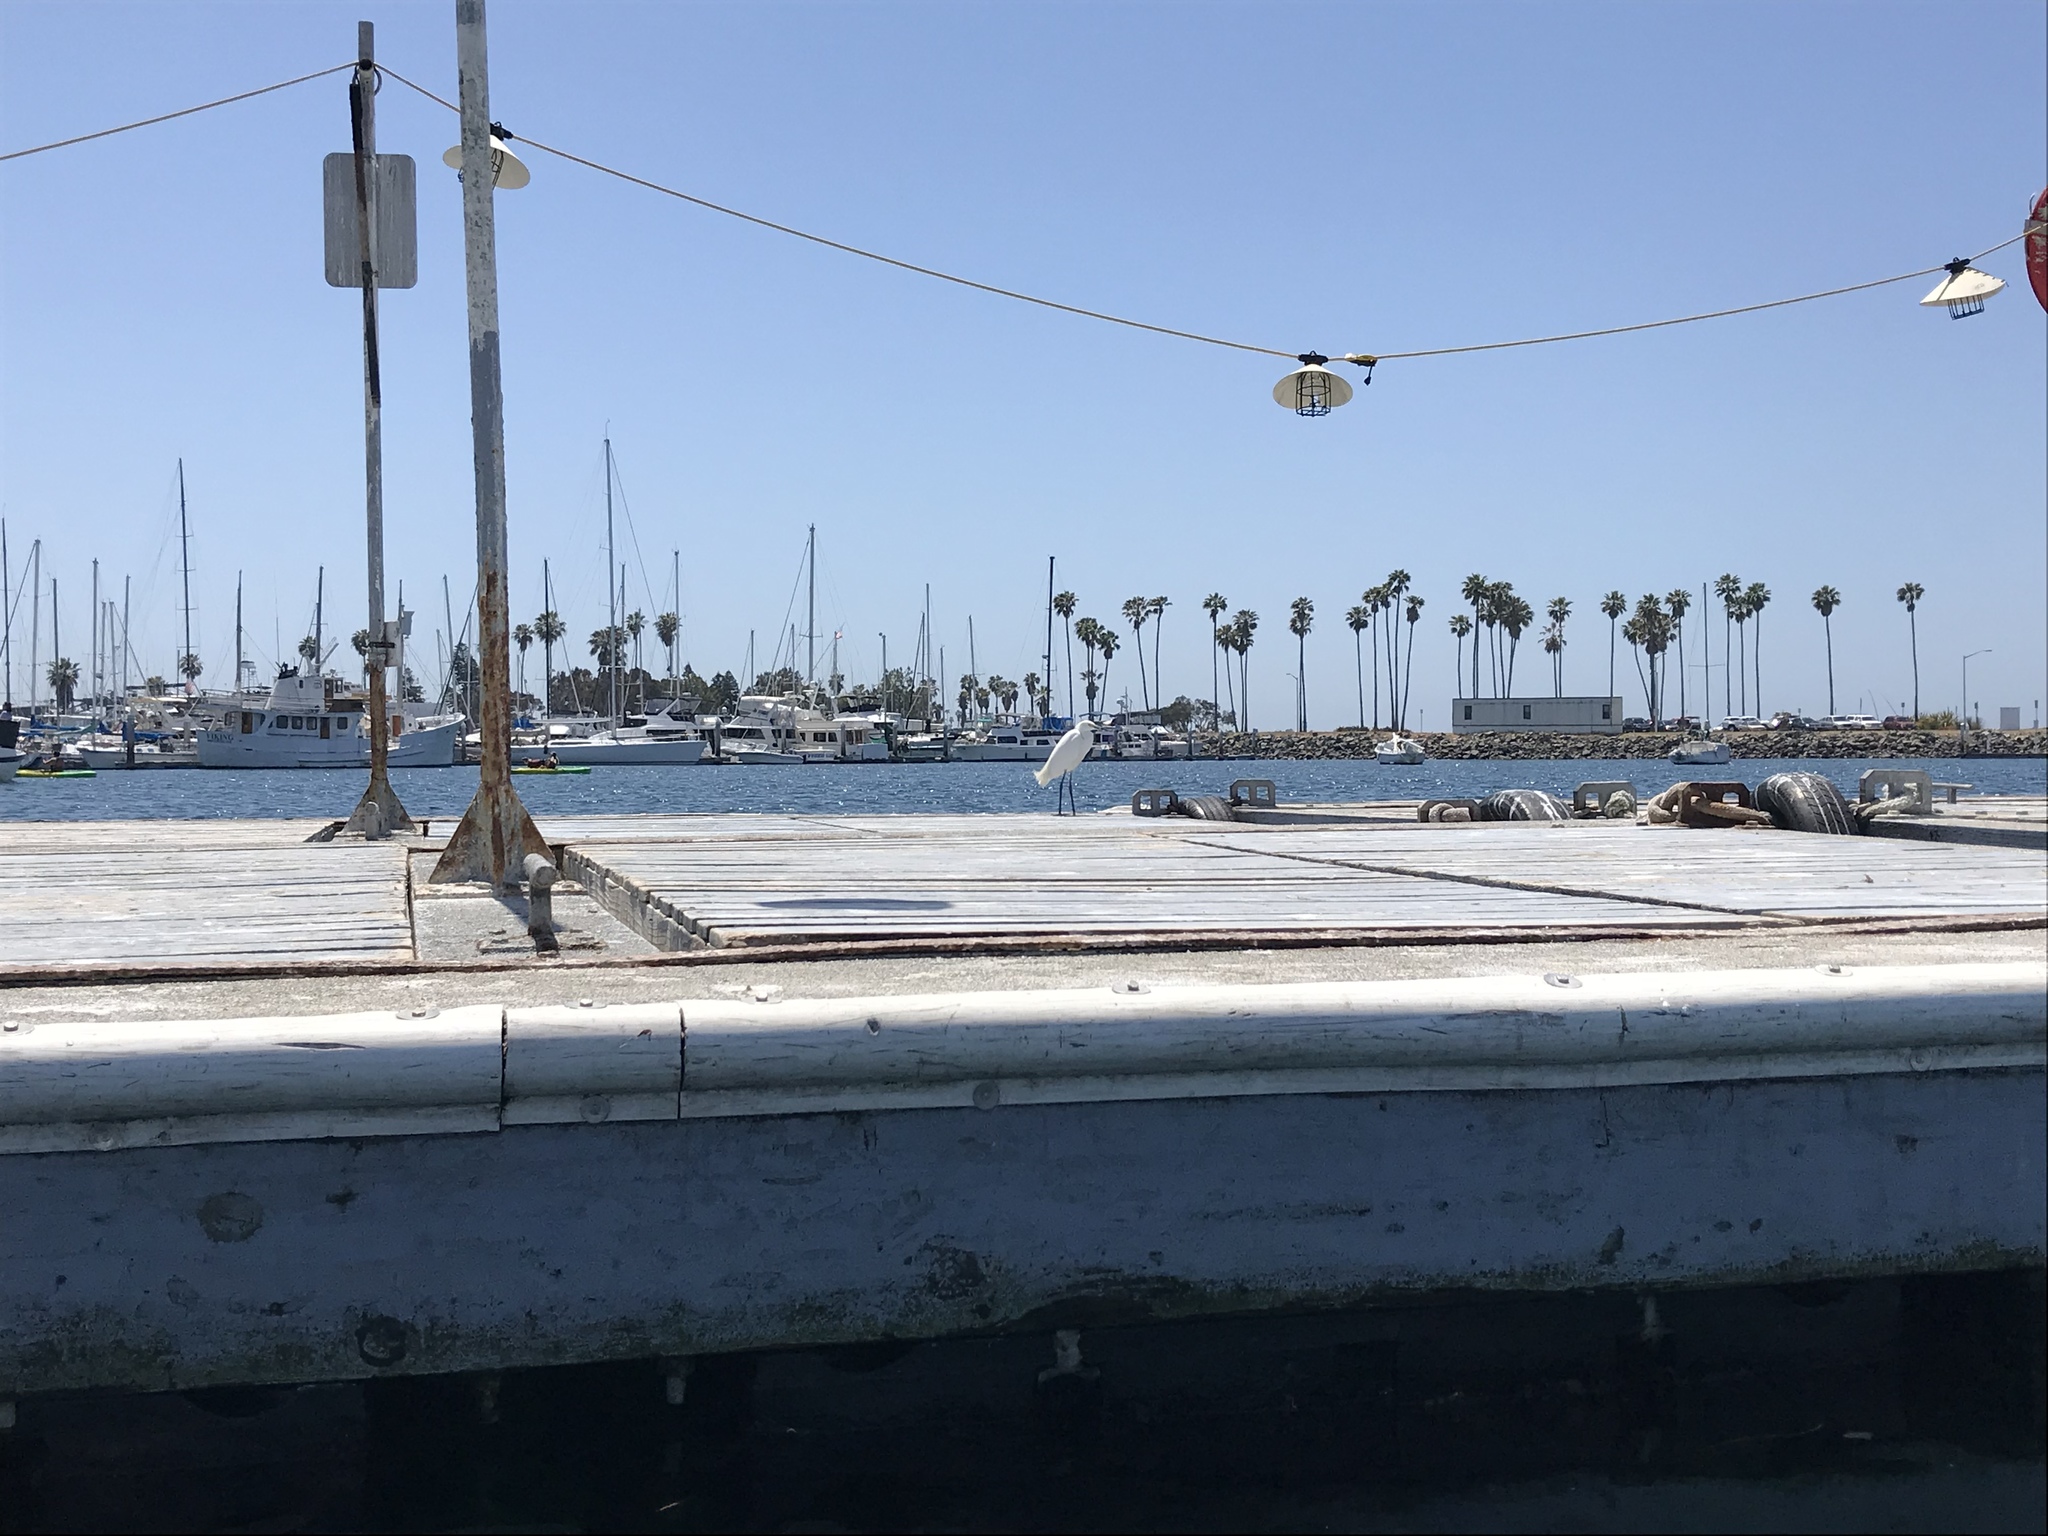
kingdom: Animalia
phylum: Chordata
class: Aves
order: Pelecaniformes
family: Ardeidae
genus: Egretta
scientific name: Egretta thula
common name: Snowy egret
